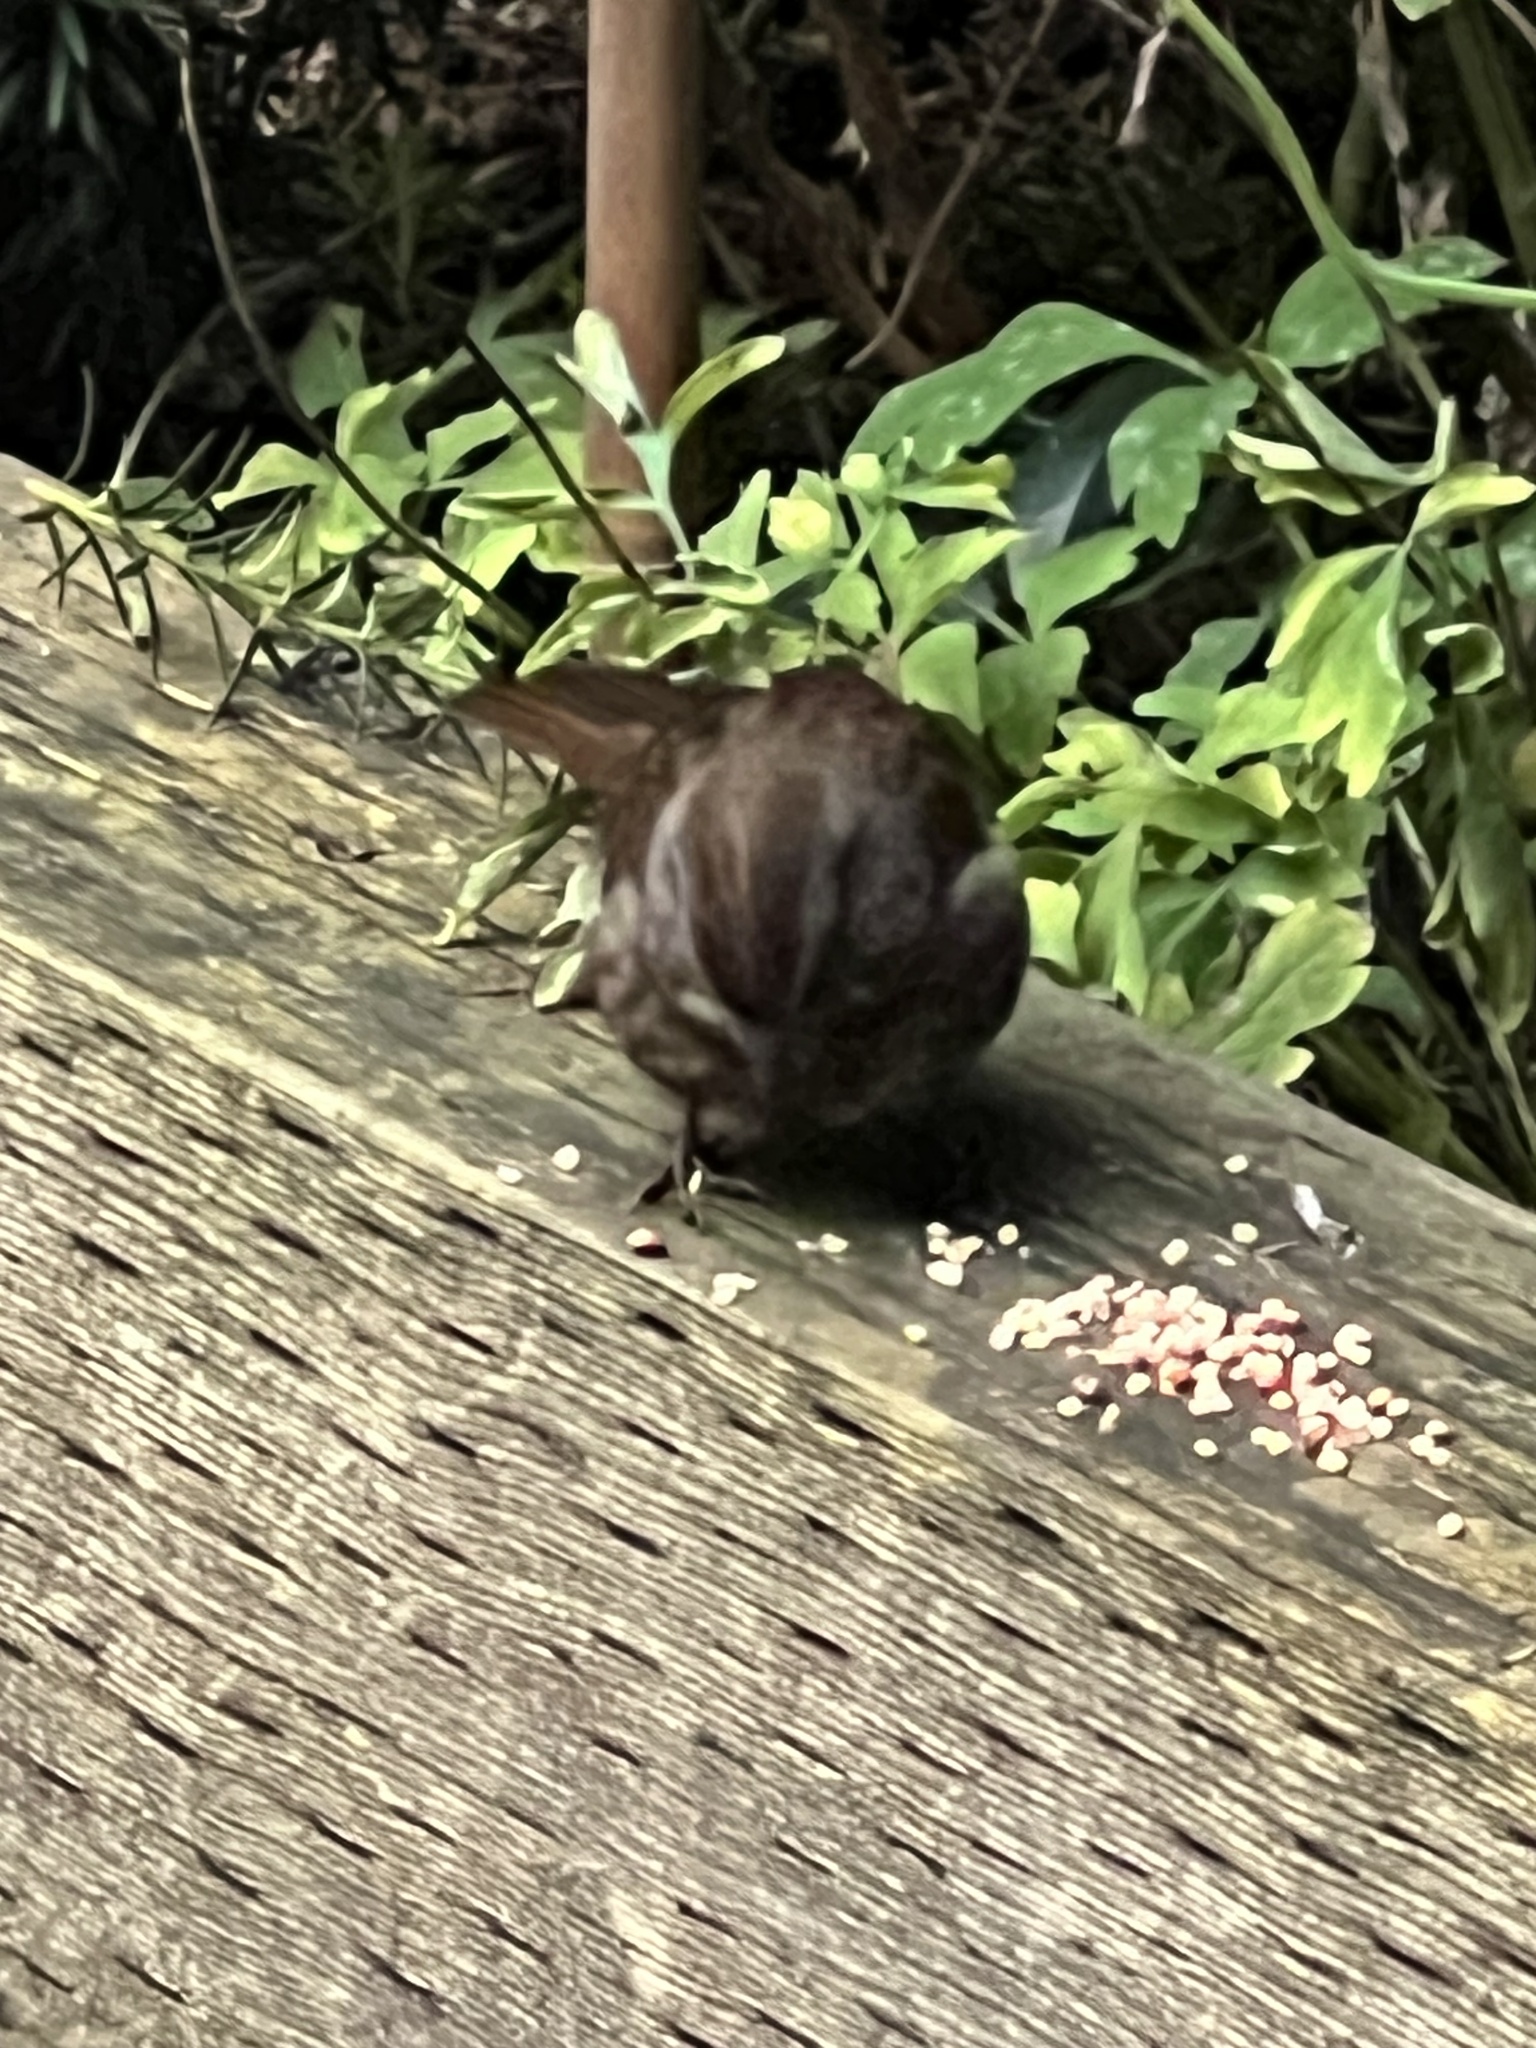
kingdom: Animalia
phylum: Chordata
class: Aves
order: Passeriformes
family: Passerellidae
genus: Melospiza
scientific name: Melospiza melodia
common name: Song sparrow
